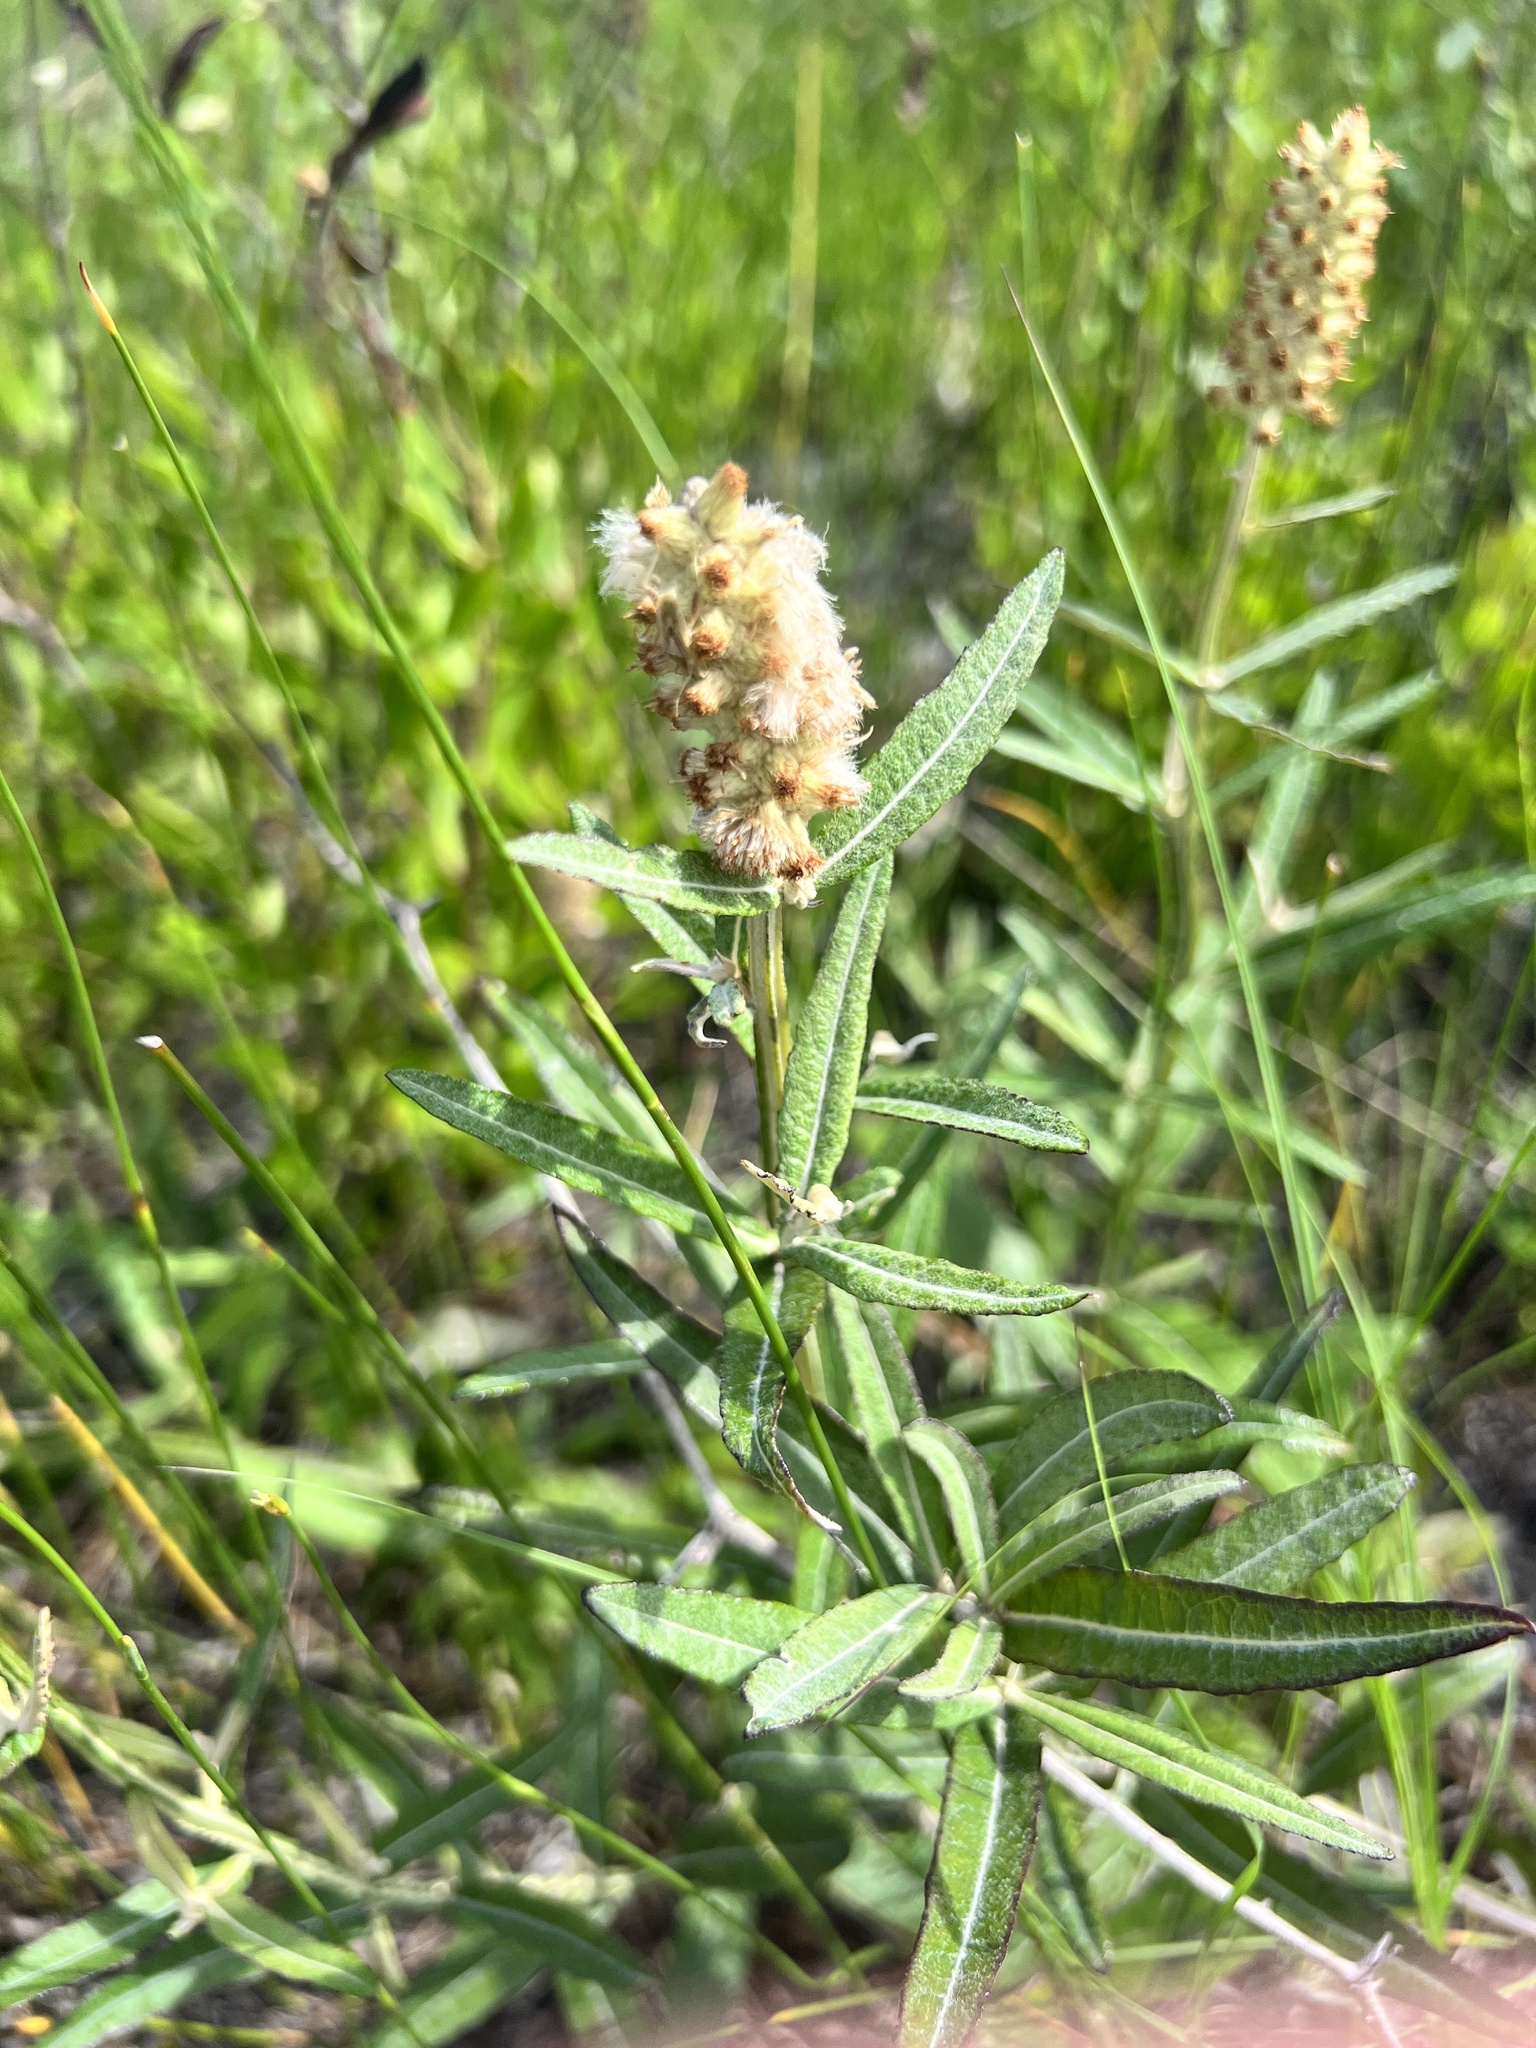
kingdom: Plantae
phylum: Tracheophyta
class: Magnoliopsida
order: Asterales
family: Asteraceae
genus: Pterocaulon
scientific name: Pterocaulon pycnostachyum
